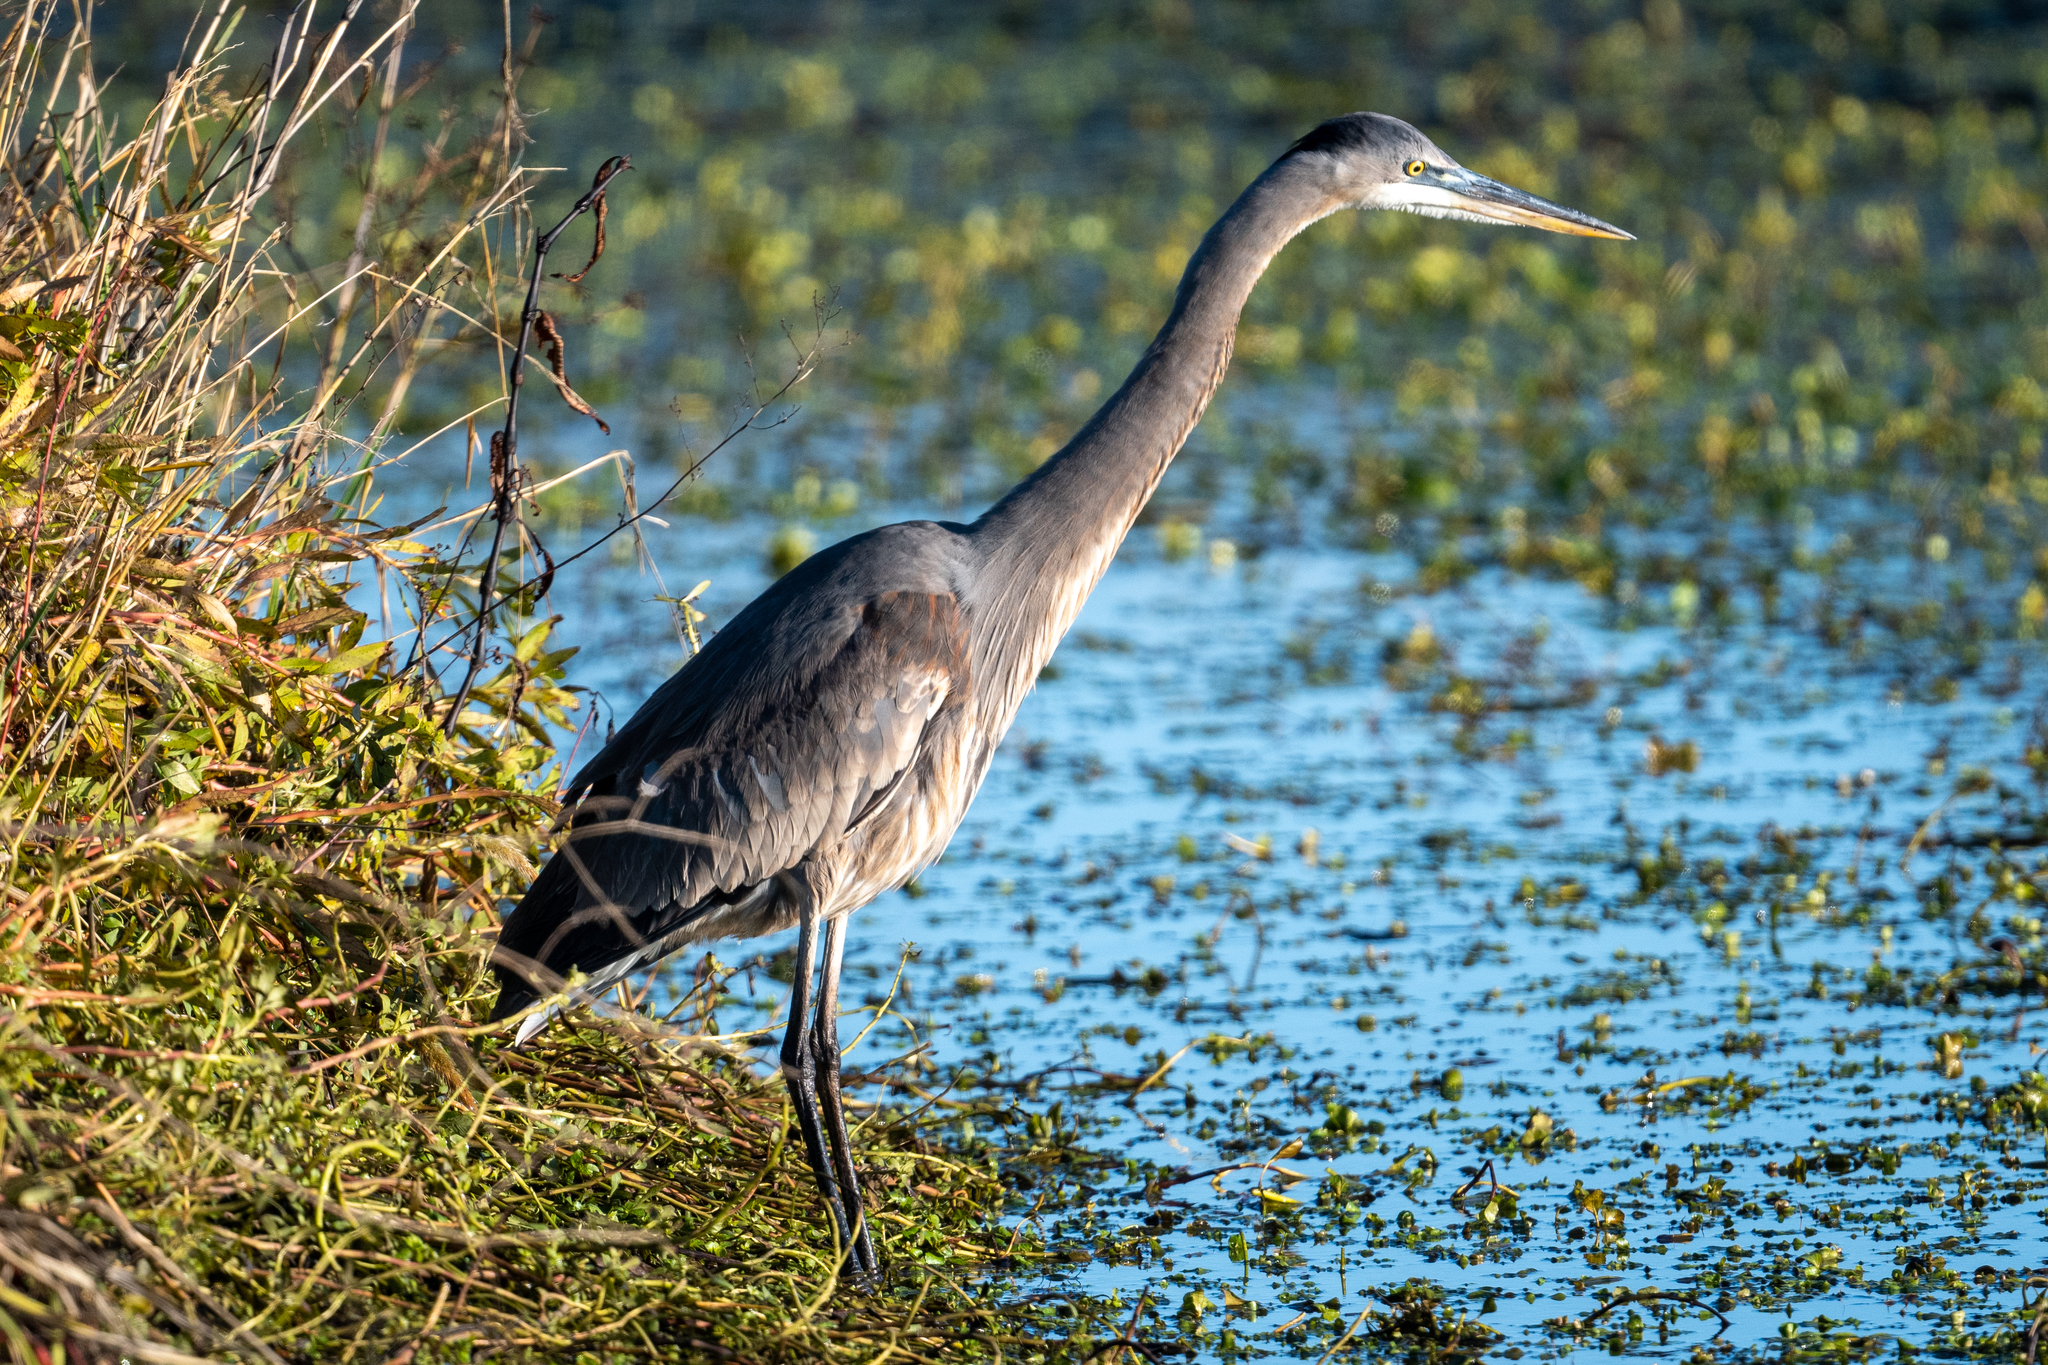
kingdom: Animalia
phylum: Chordata
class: Aves
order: Pelecaniformes
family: Ardeidae
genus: Ardea
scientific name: Ardea herodias
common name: Great blue heron
